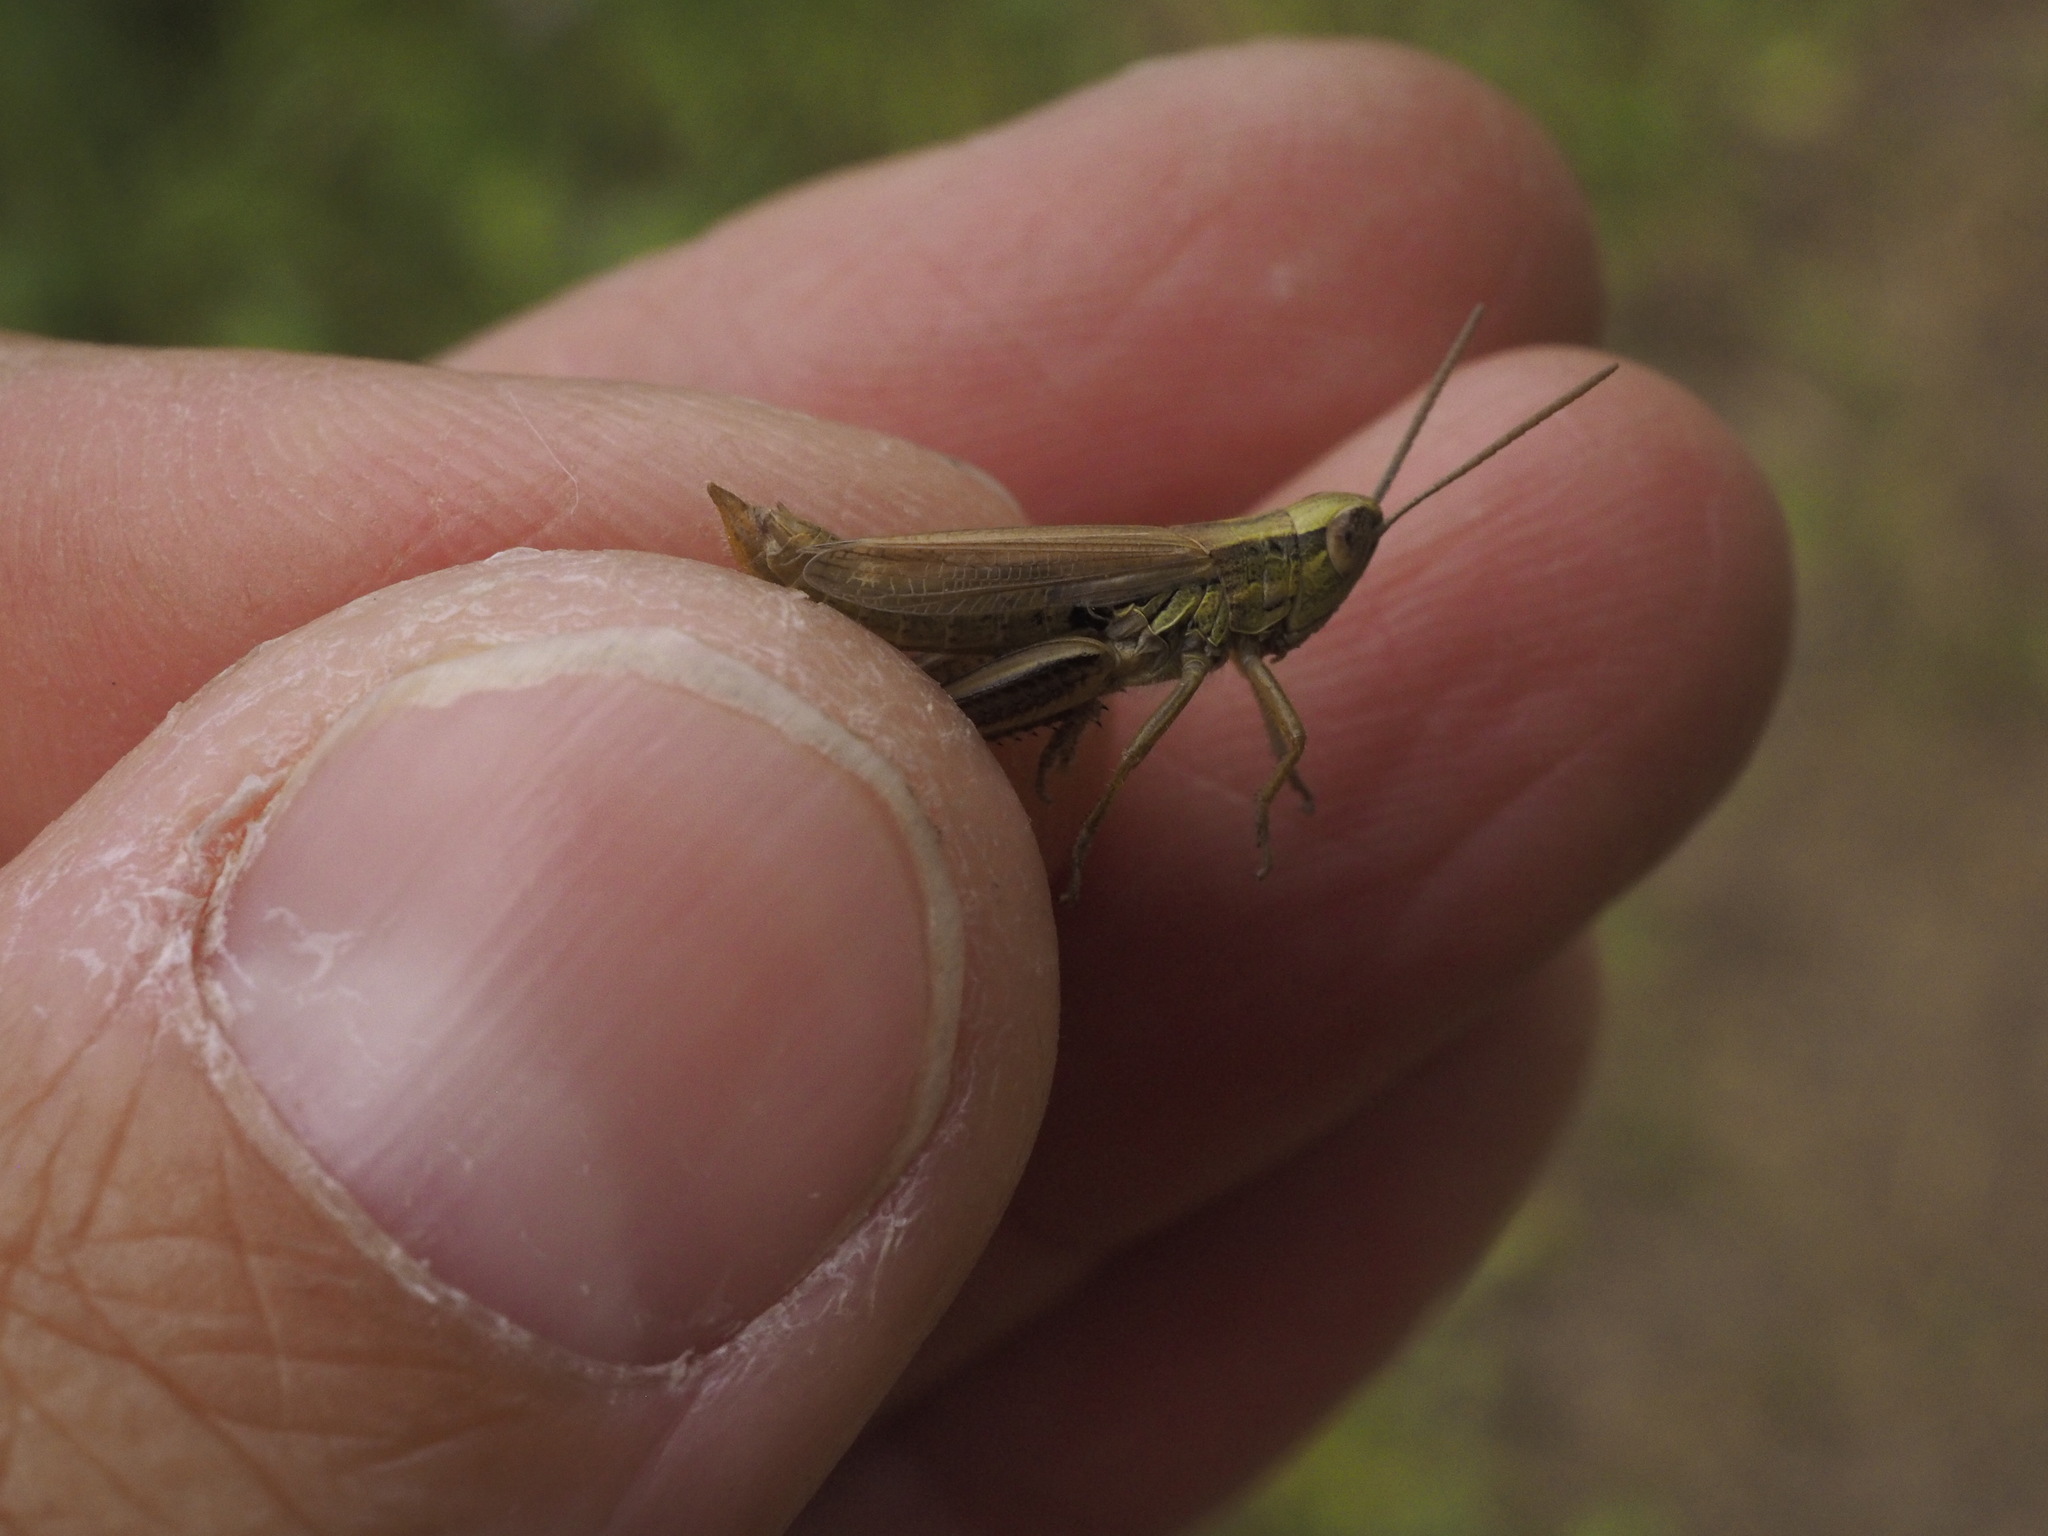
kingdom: Animalia
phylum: Arthropoda
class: Insecta
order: Orthoptera
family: Acrididae
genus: Euchorthippus
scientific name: Euchorthippus declivus
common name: Common straw grasshopper
